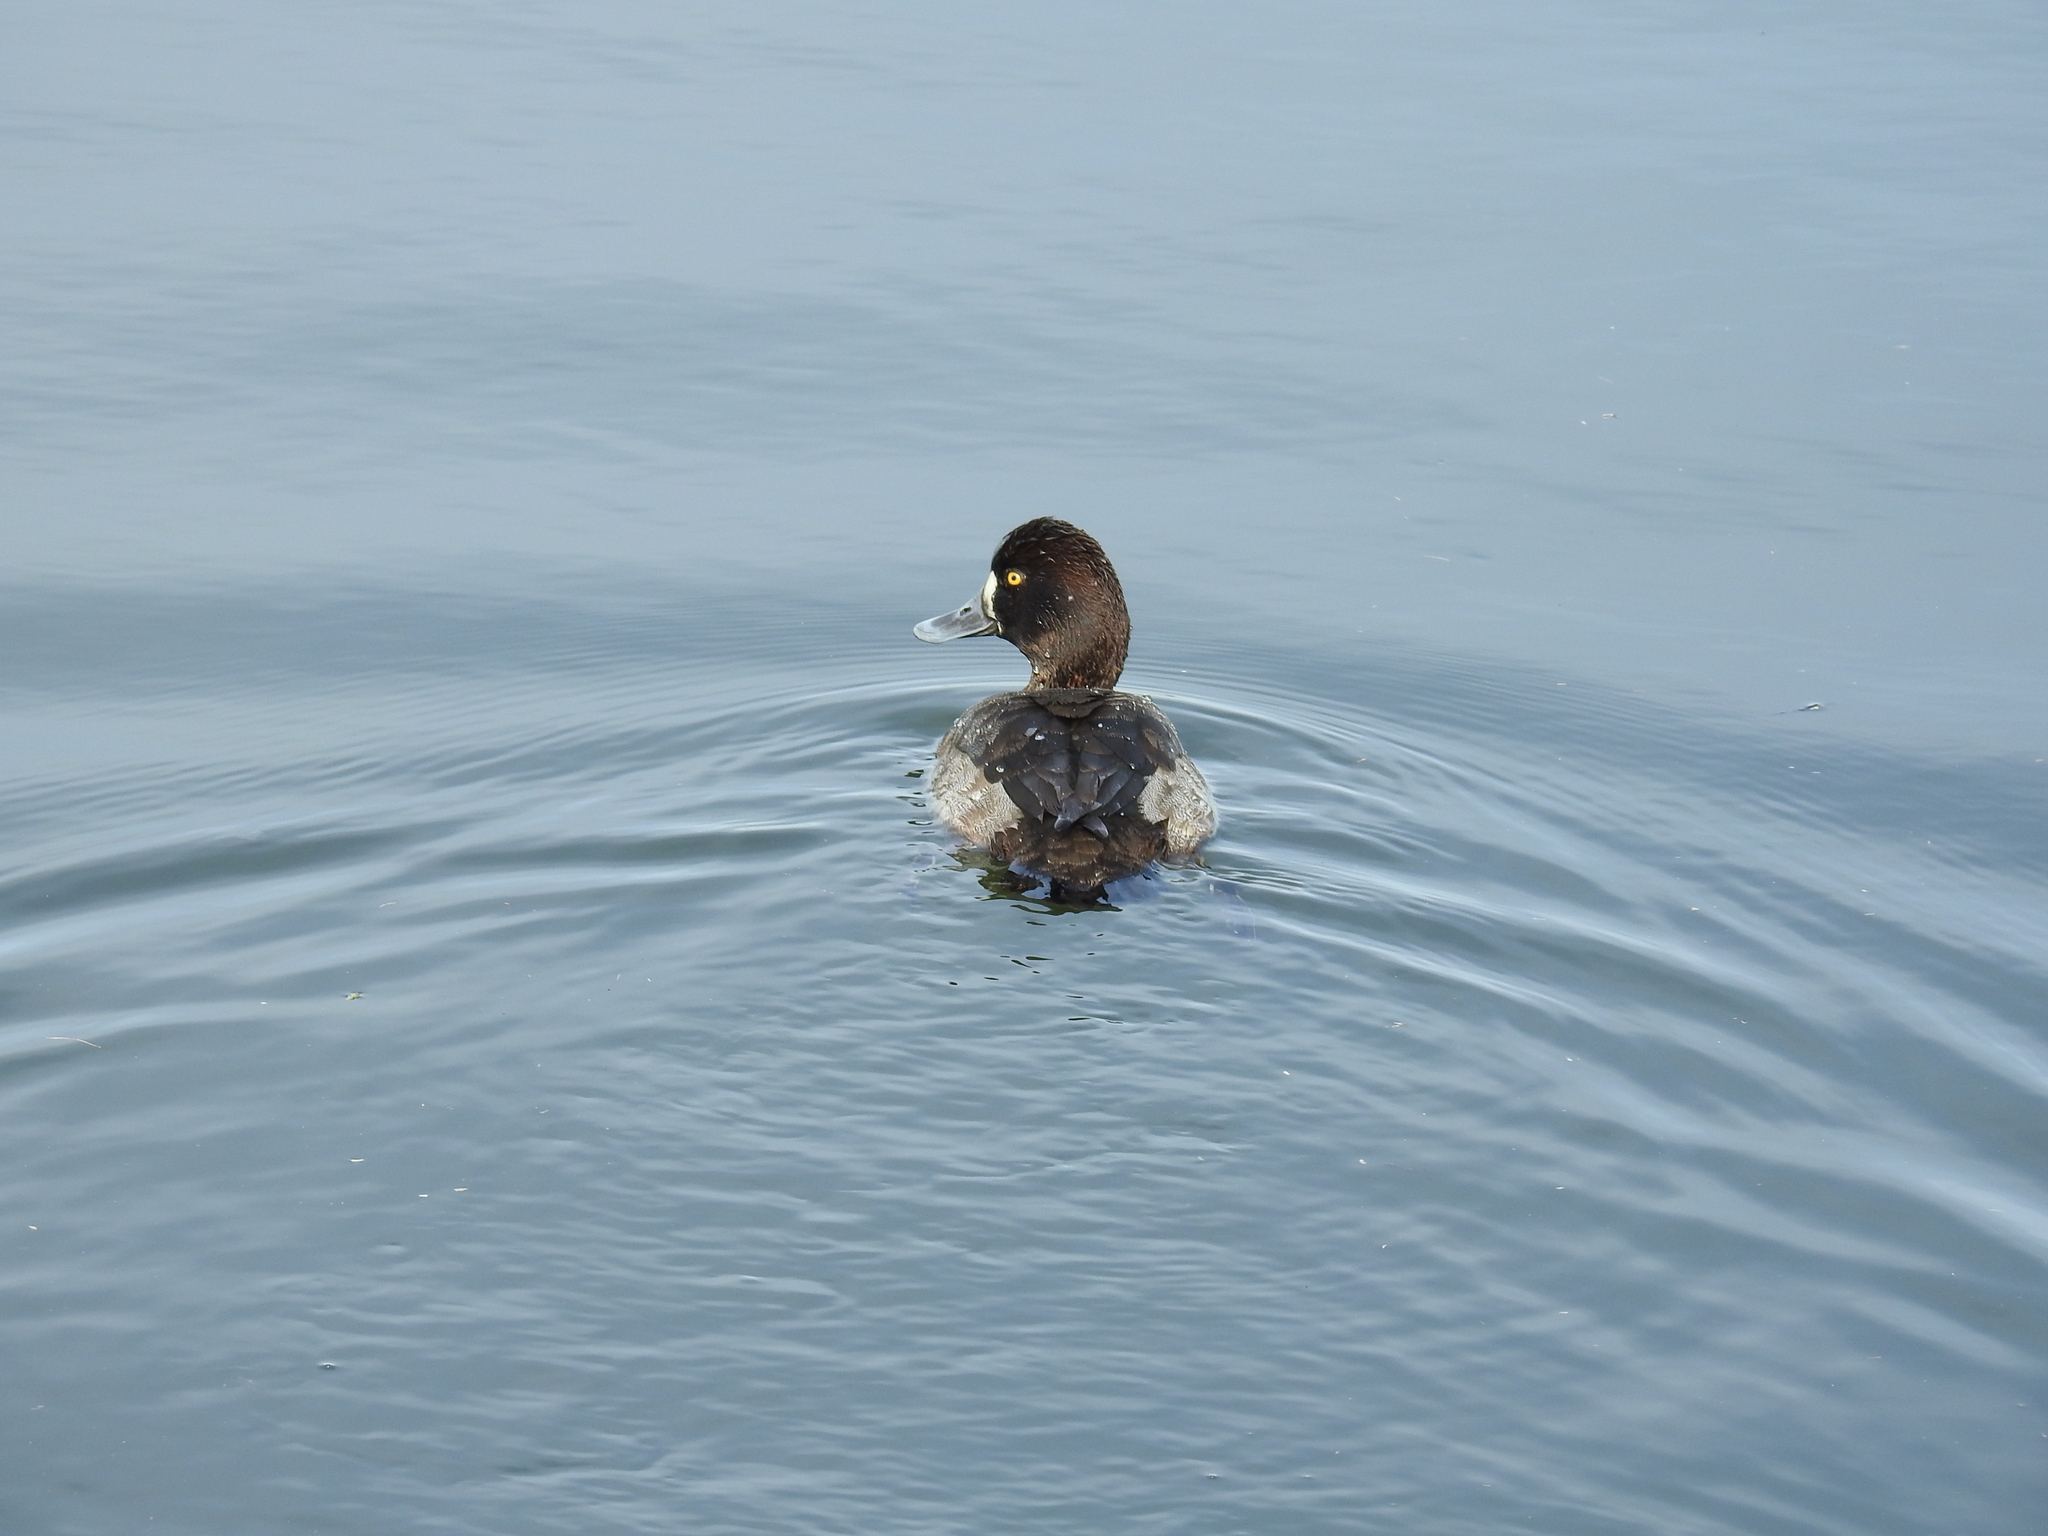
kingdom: Animalia
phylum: Chordata
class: Aves
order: Anseriformes
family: Anatidae
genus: Aythya
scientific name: Aythya affinis
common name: Lesser scaup
